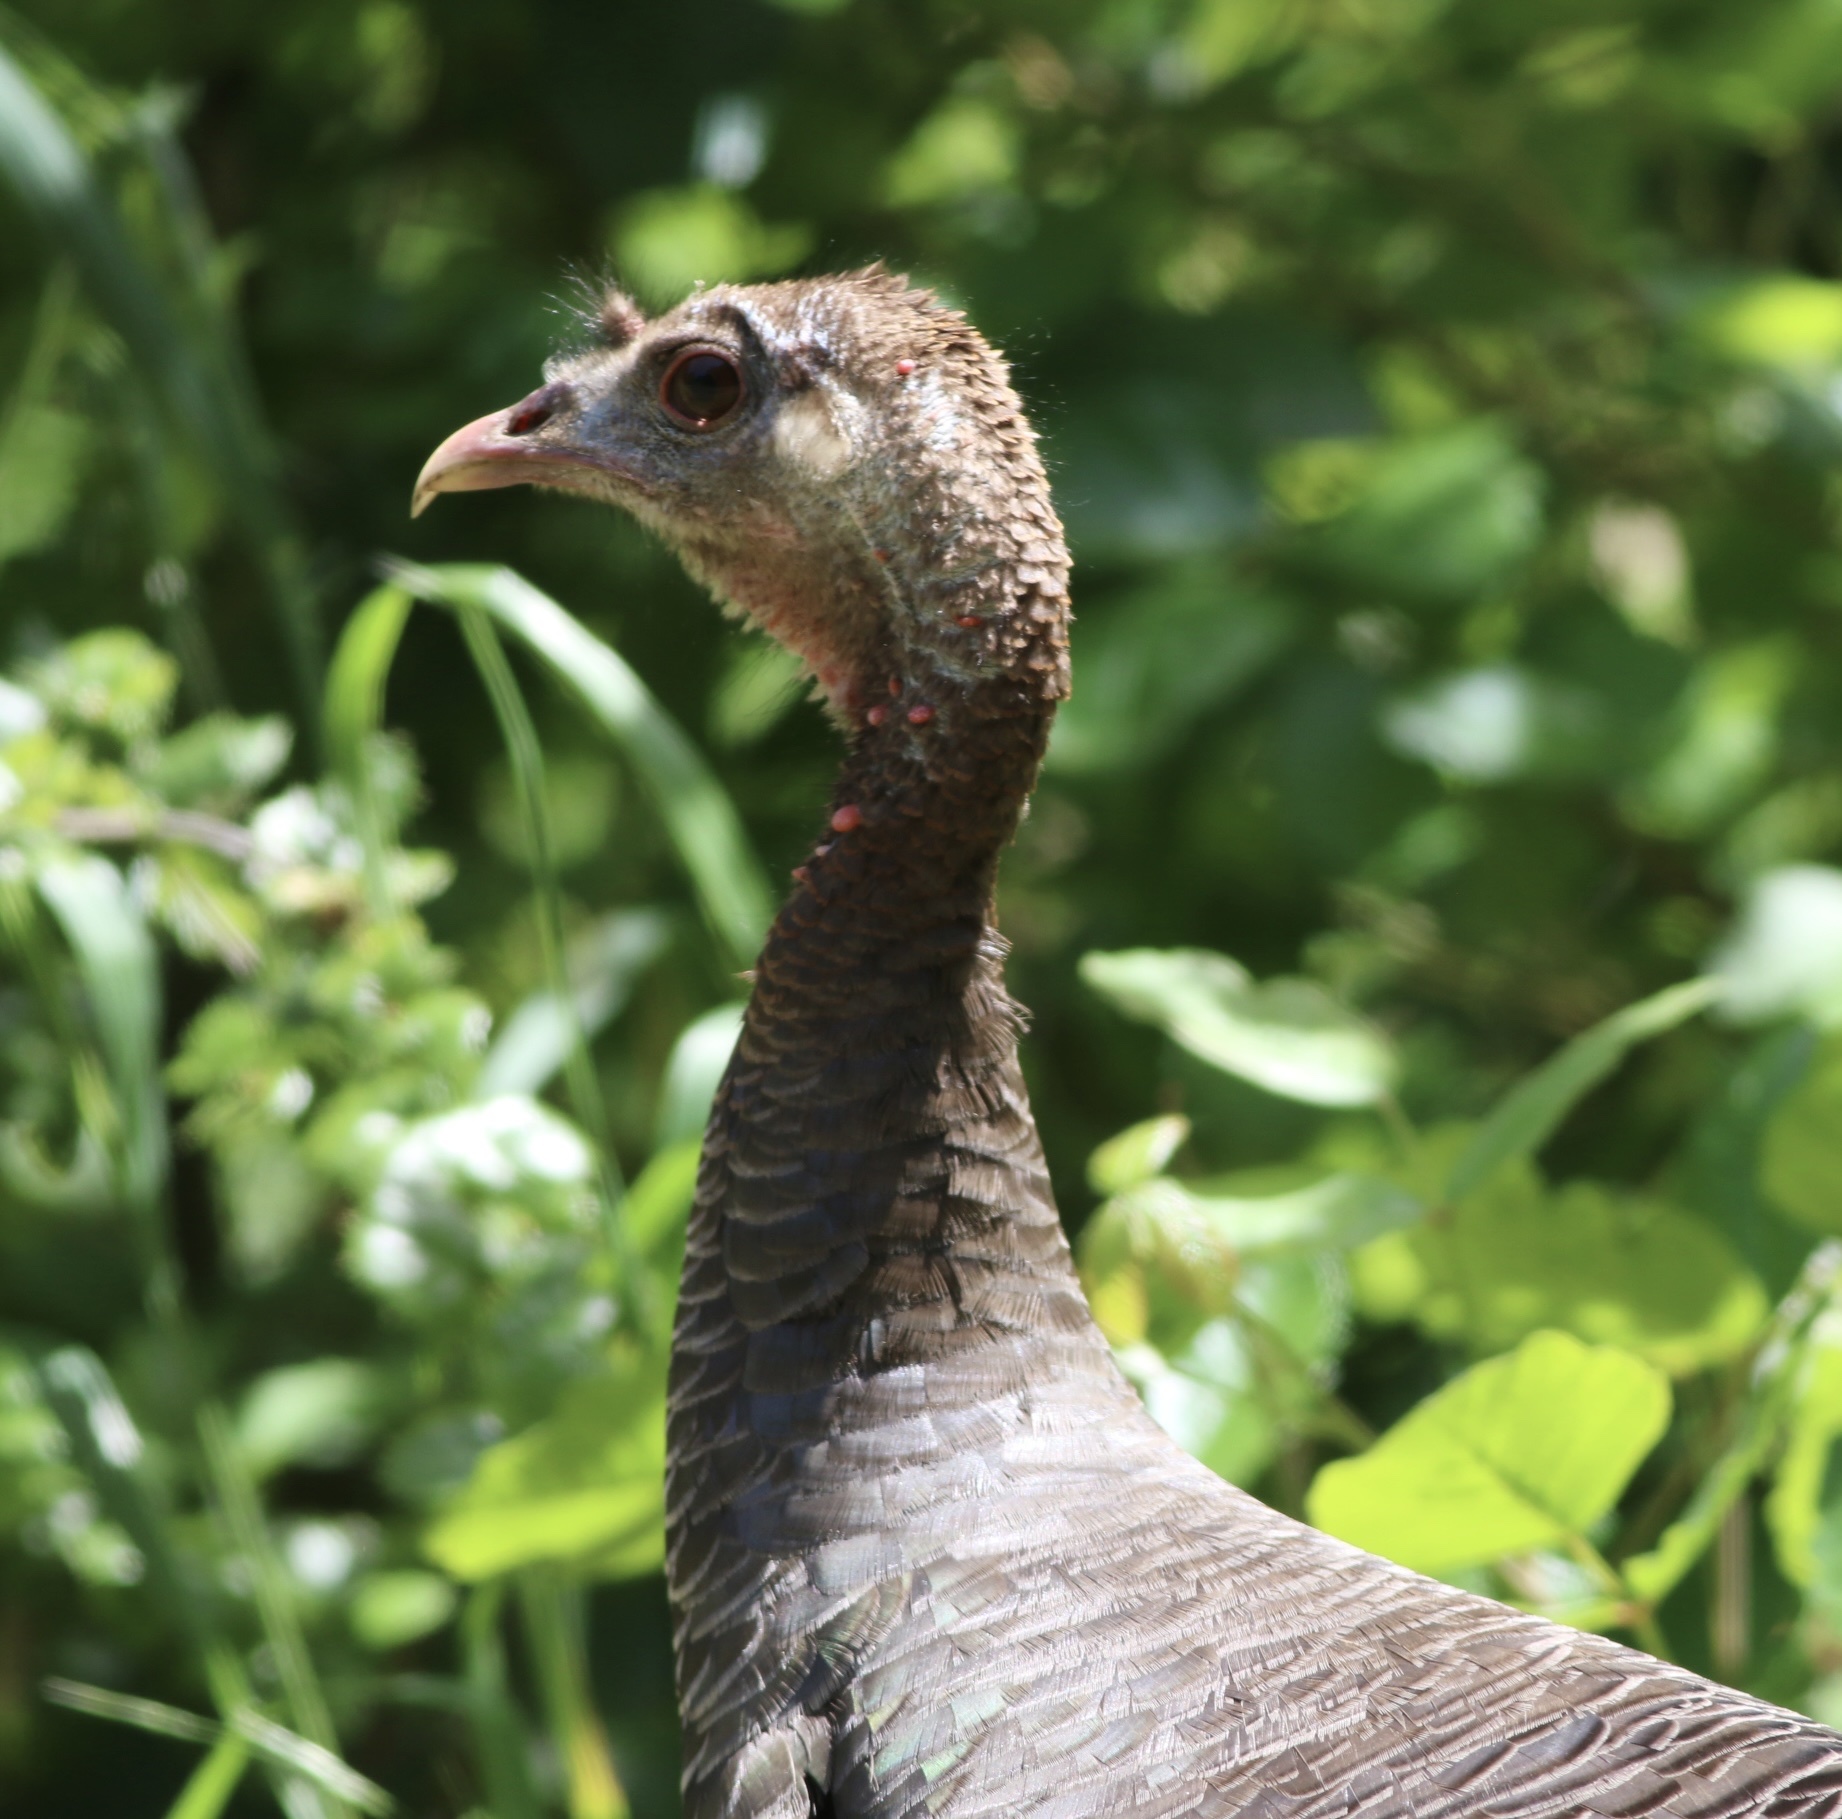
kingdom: Animalia
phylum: Chordata
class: Aves
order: Galliformes
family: Phasianidae
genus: Meleagris
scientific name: Meleagris gallopavo
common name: Wild turkey
